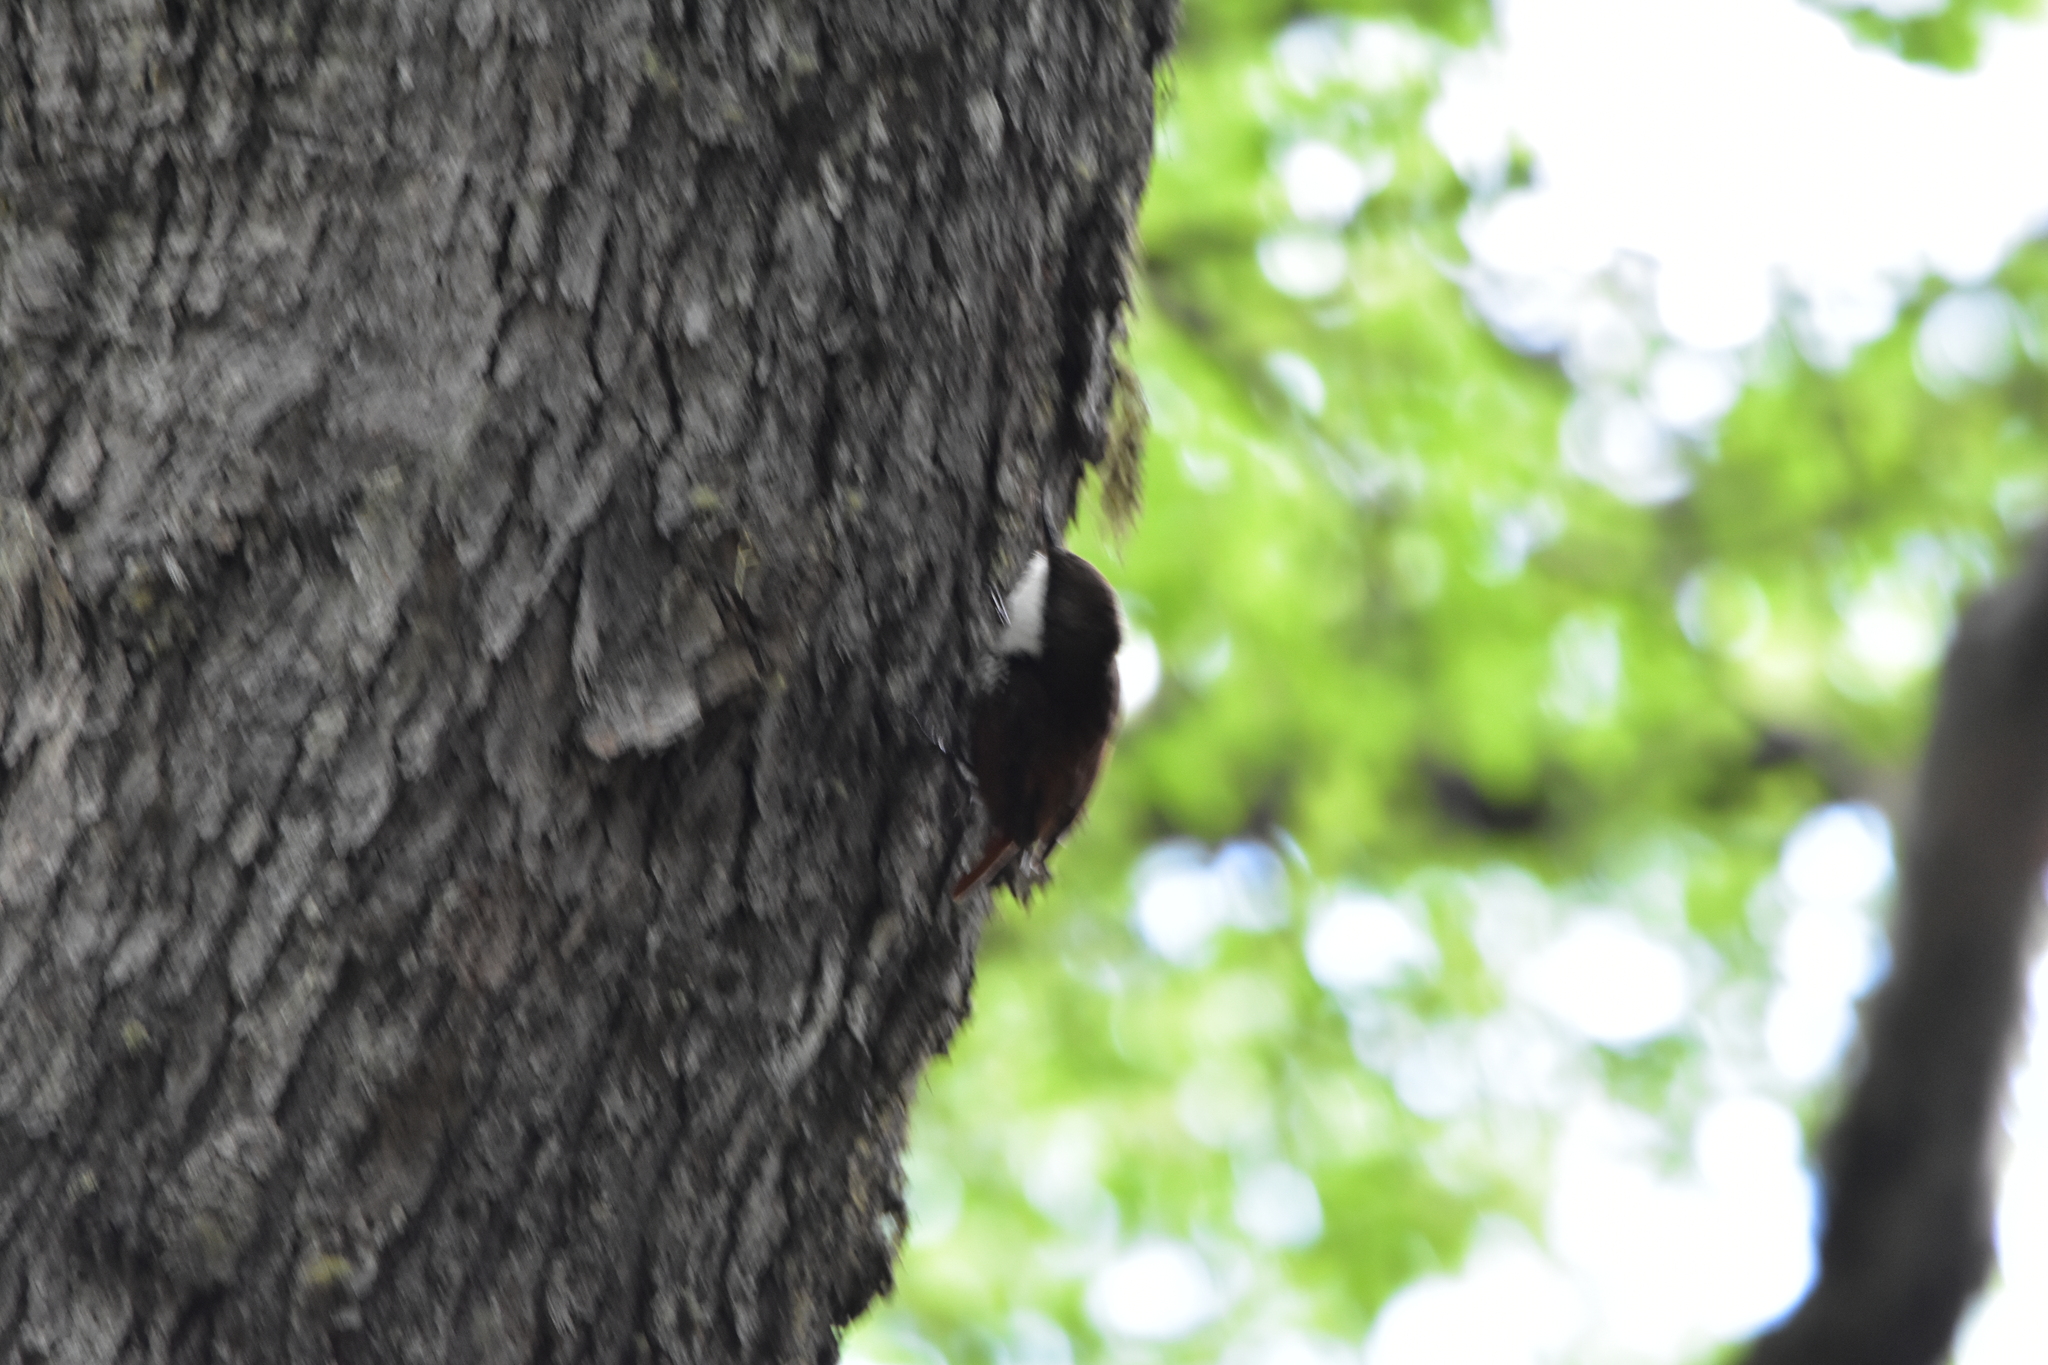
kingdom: Animalia
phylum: Chordata
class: Aves
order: Passeriformes
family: Furnariidae
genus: Pygarrhichas
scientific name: Pygarrhichas albogularis
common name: White-throated treerunner
